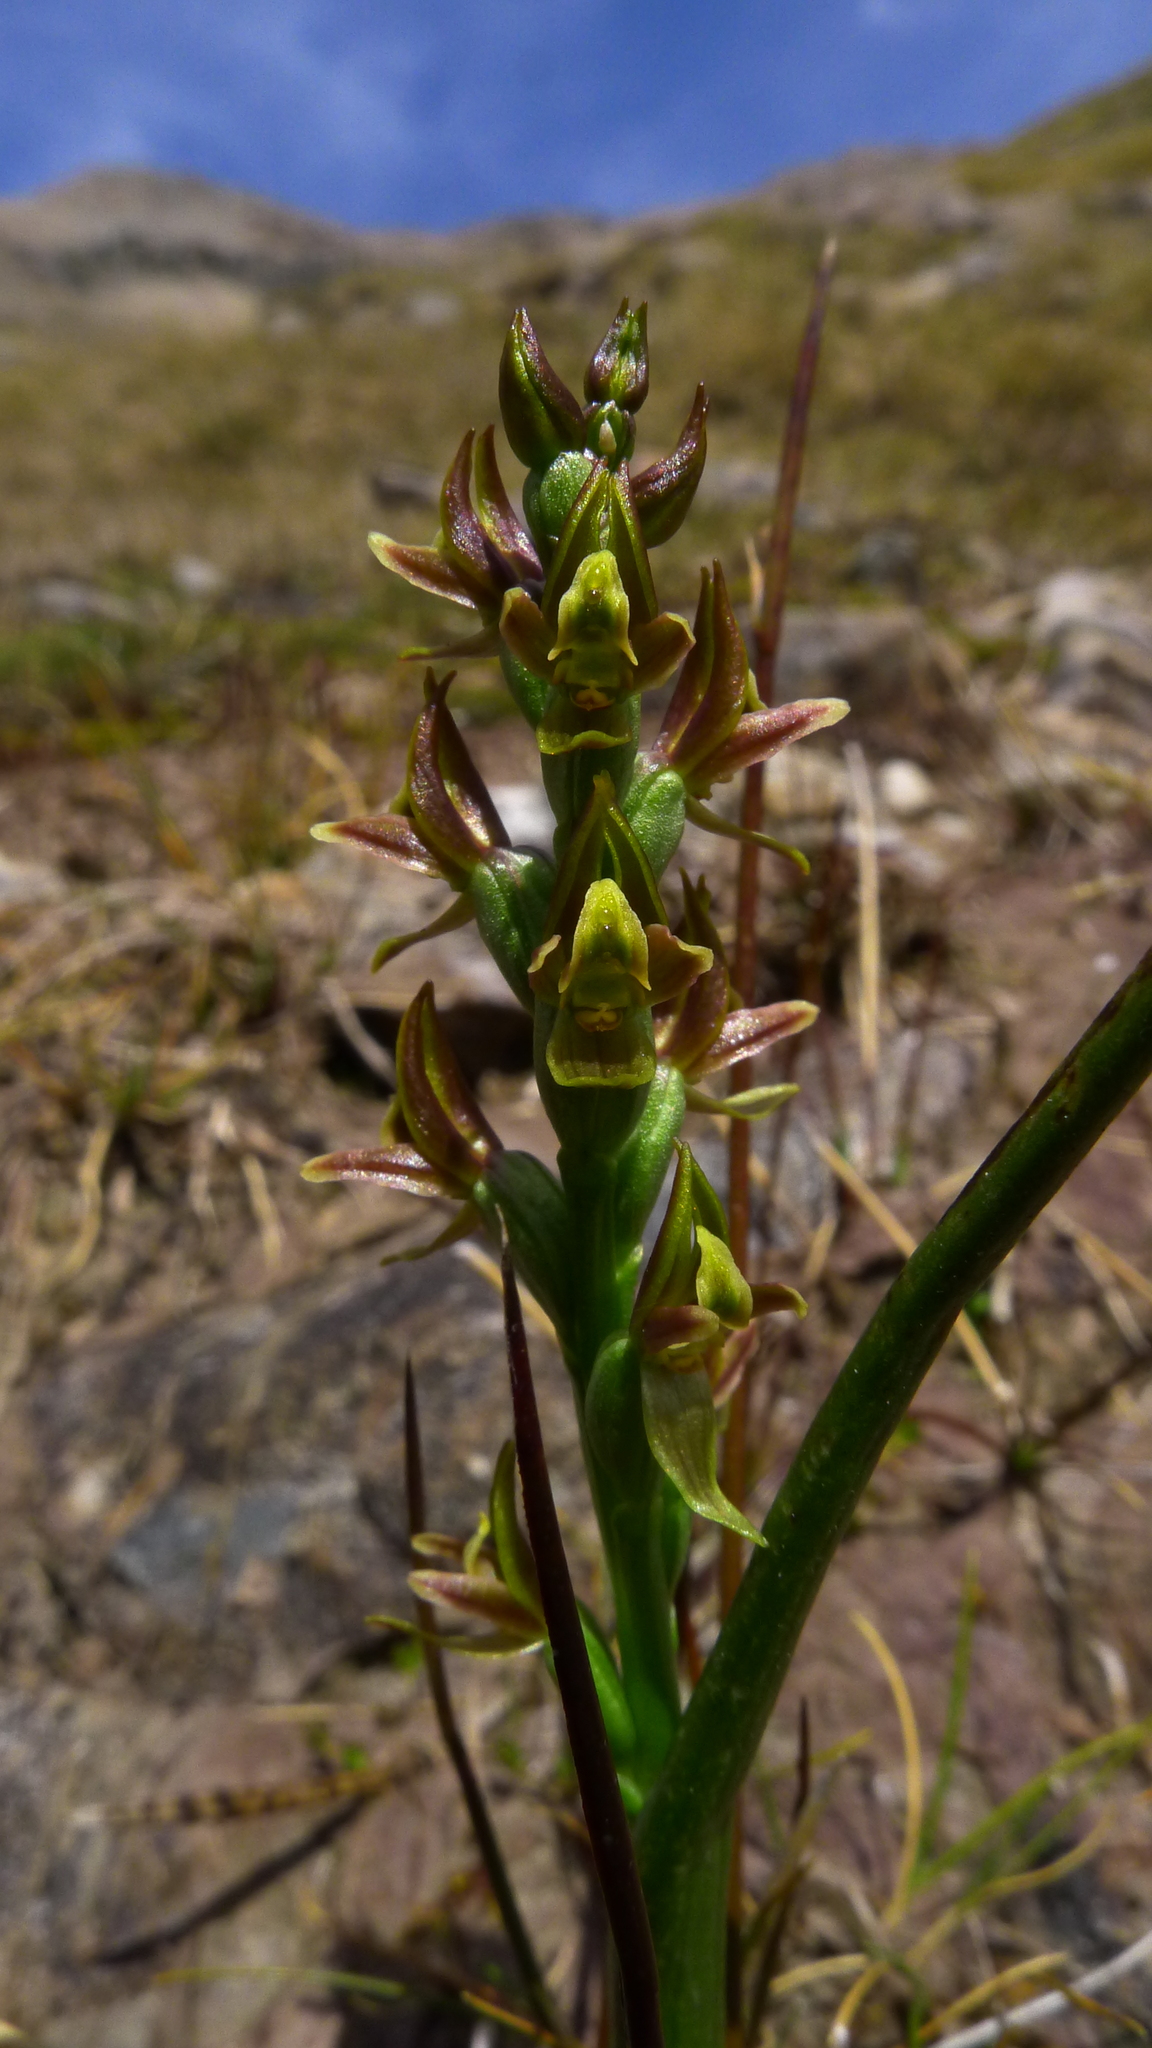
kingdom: Plantae
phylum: Tracheophyta
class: Liliopsida
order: Asparagales
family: Orchidaceae
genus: Prasophyllum
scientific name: Prasophyllum colensoi
